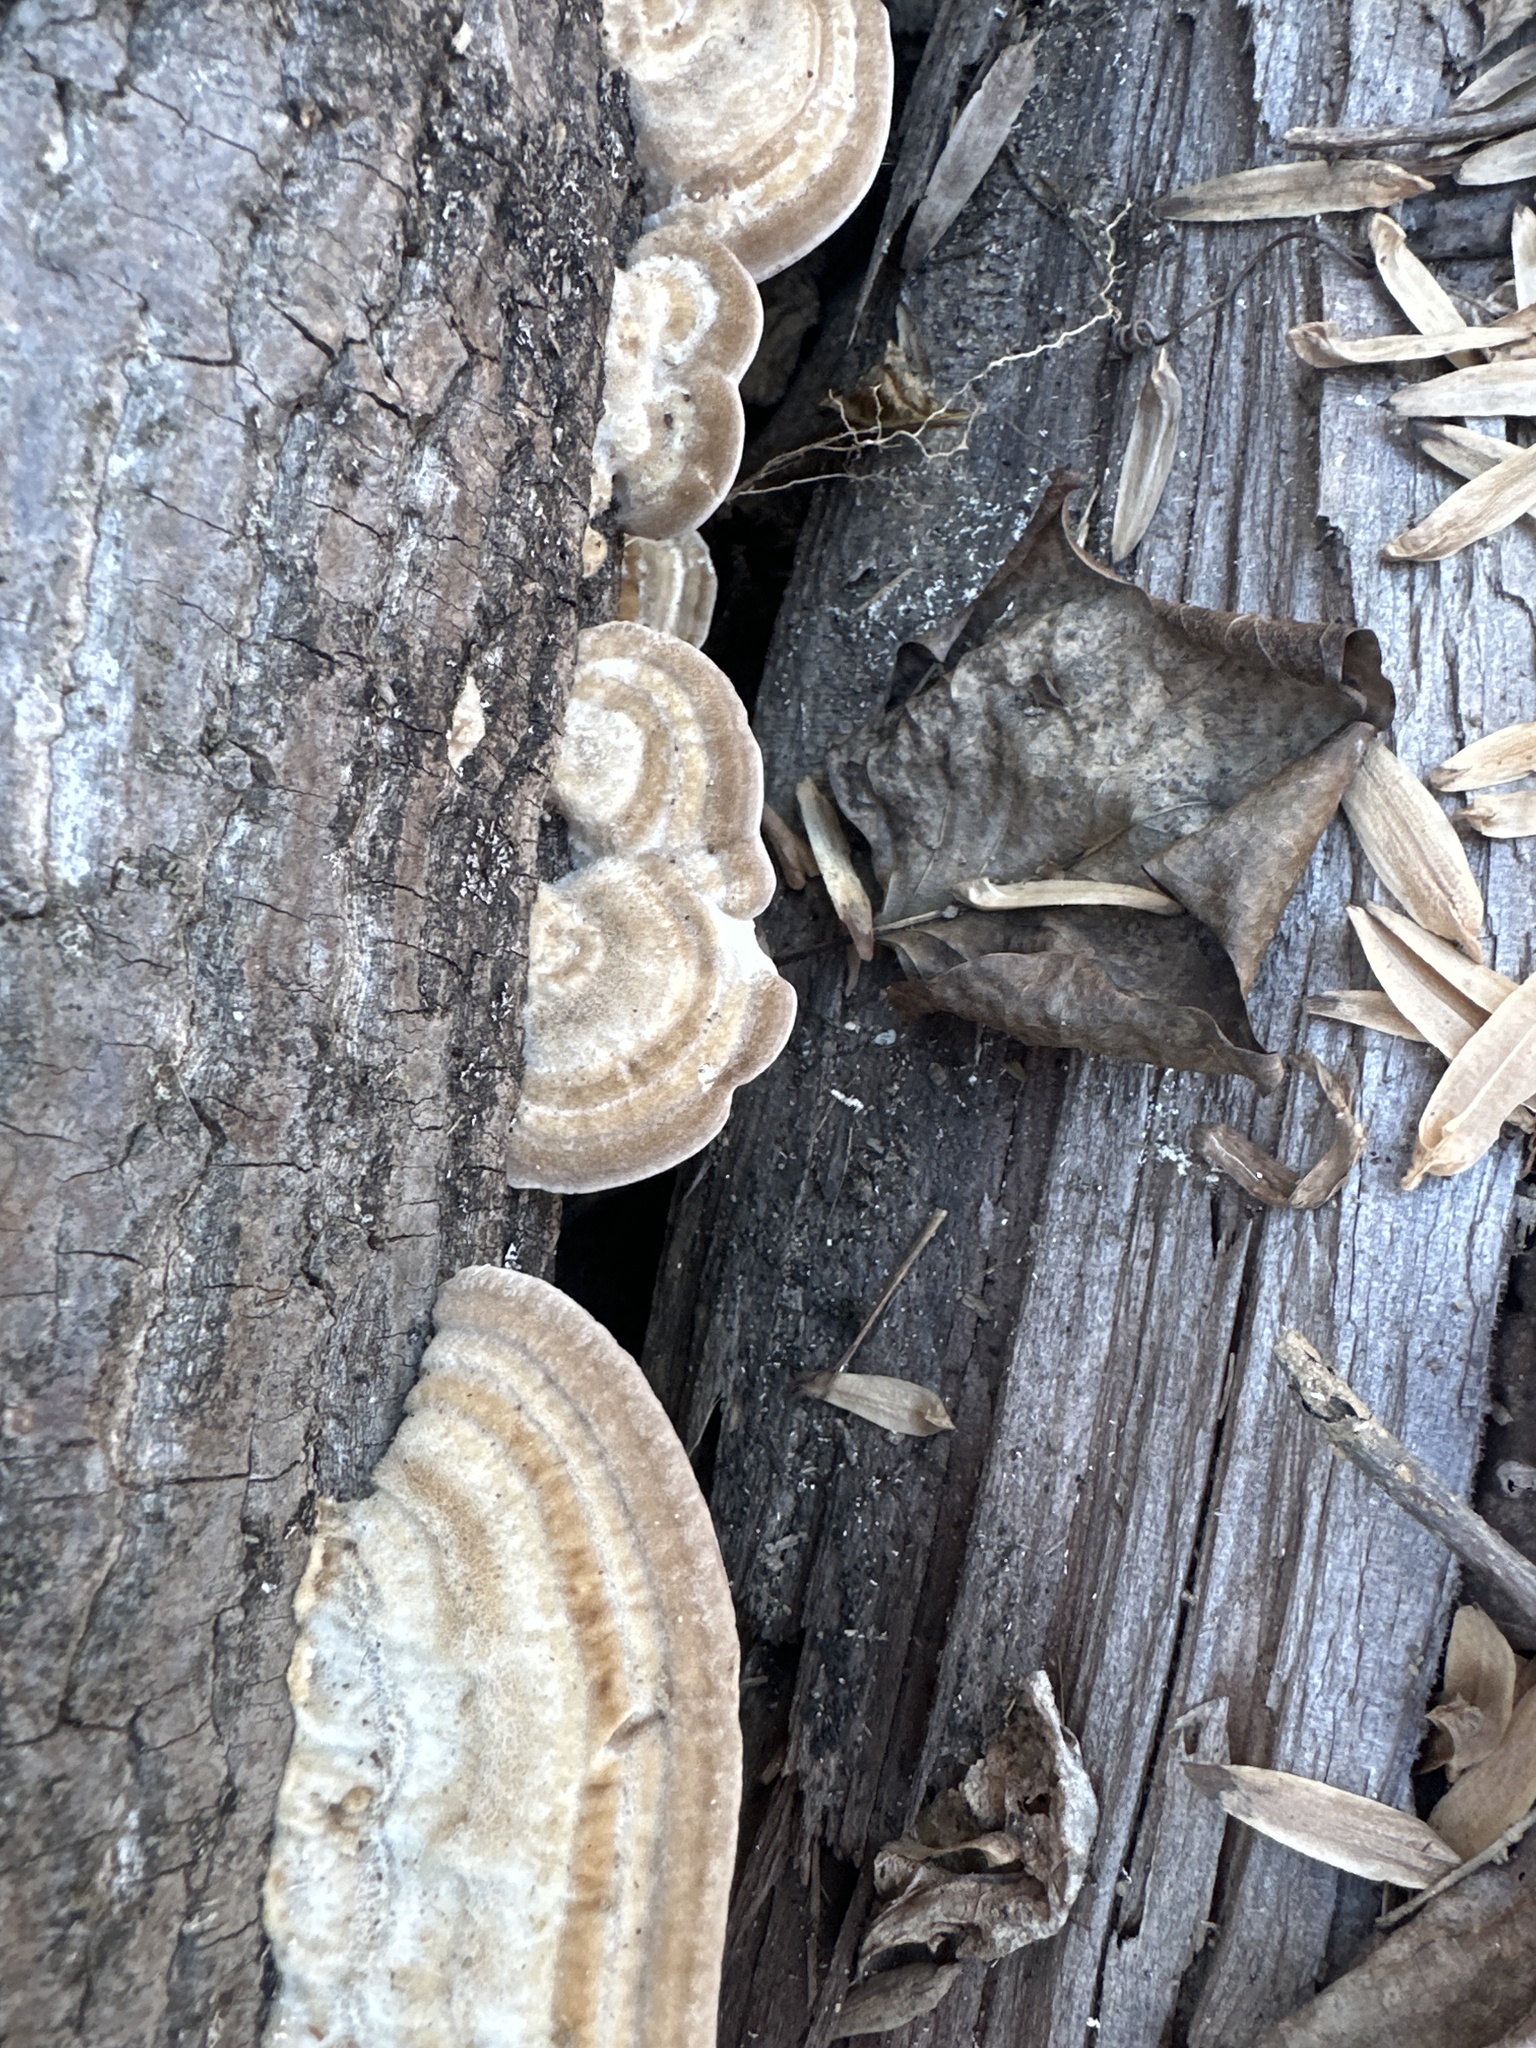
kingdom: Plantae
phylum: Tracheophyta
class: Magnoliopsida
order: Lamiales
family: Scrophulariaceae
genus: Verbascum
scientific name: Verbascum thapsus
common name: Common mullein
